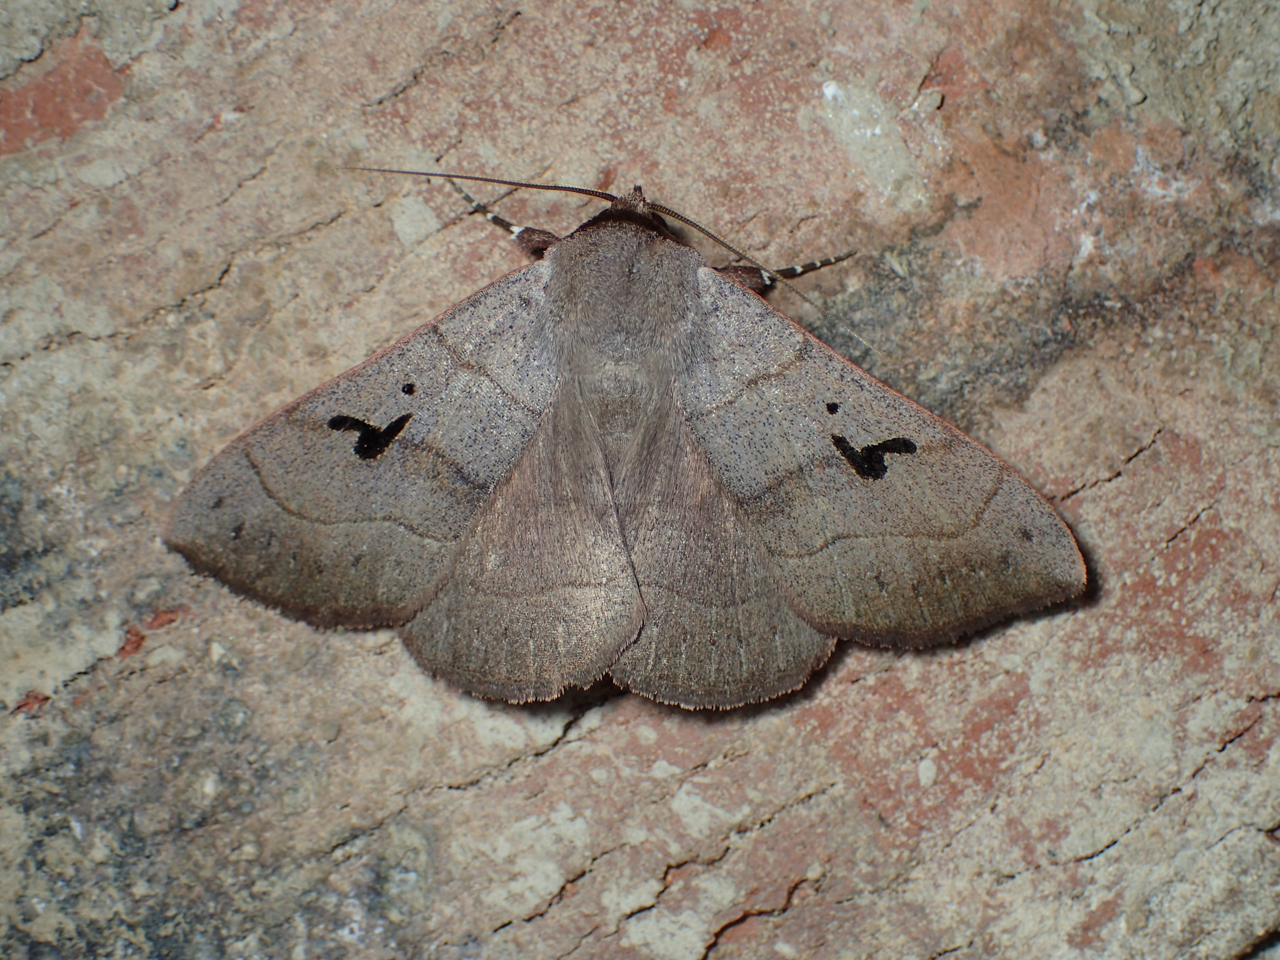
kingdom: Animalia
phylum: Arthropoda
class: Insecta
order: Lepidoptera
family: Erebidae
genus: Panopoda
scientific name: Panopoda carneicosta
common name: Brown panopoda moth
